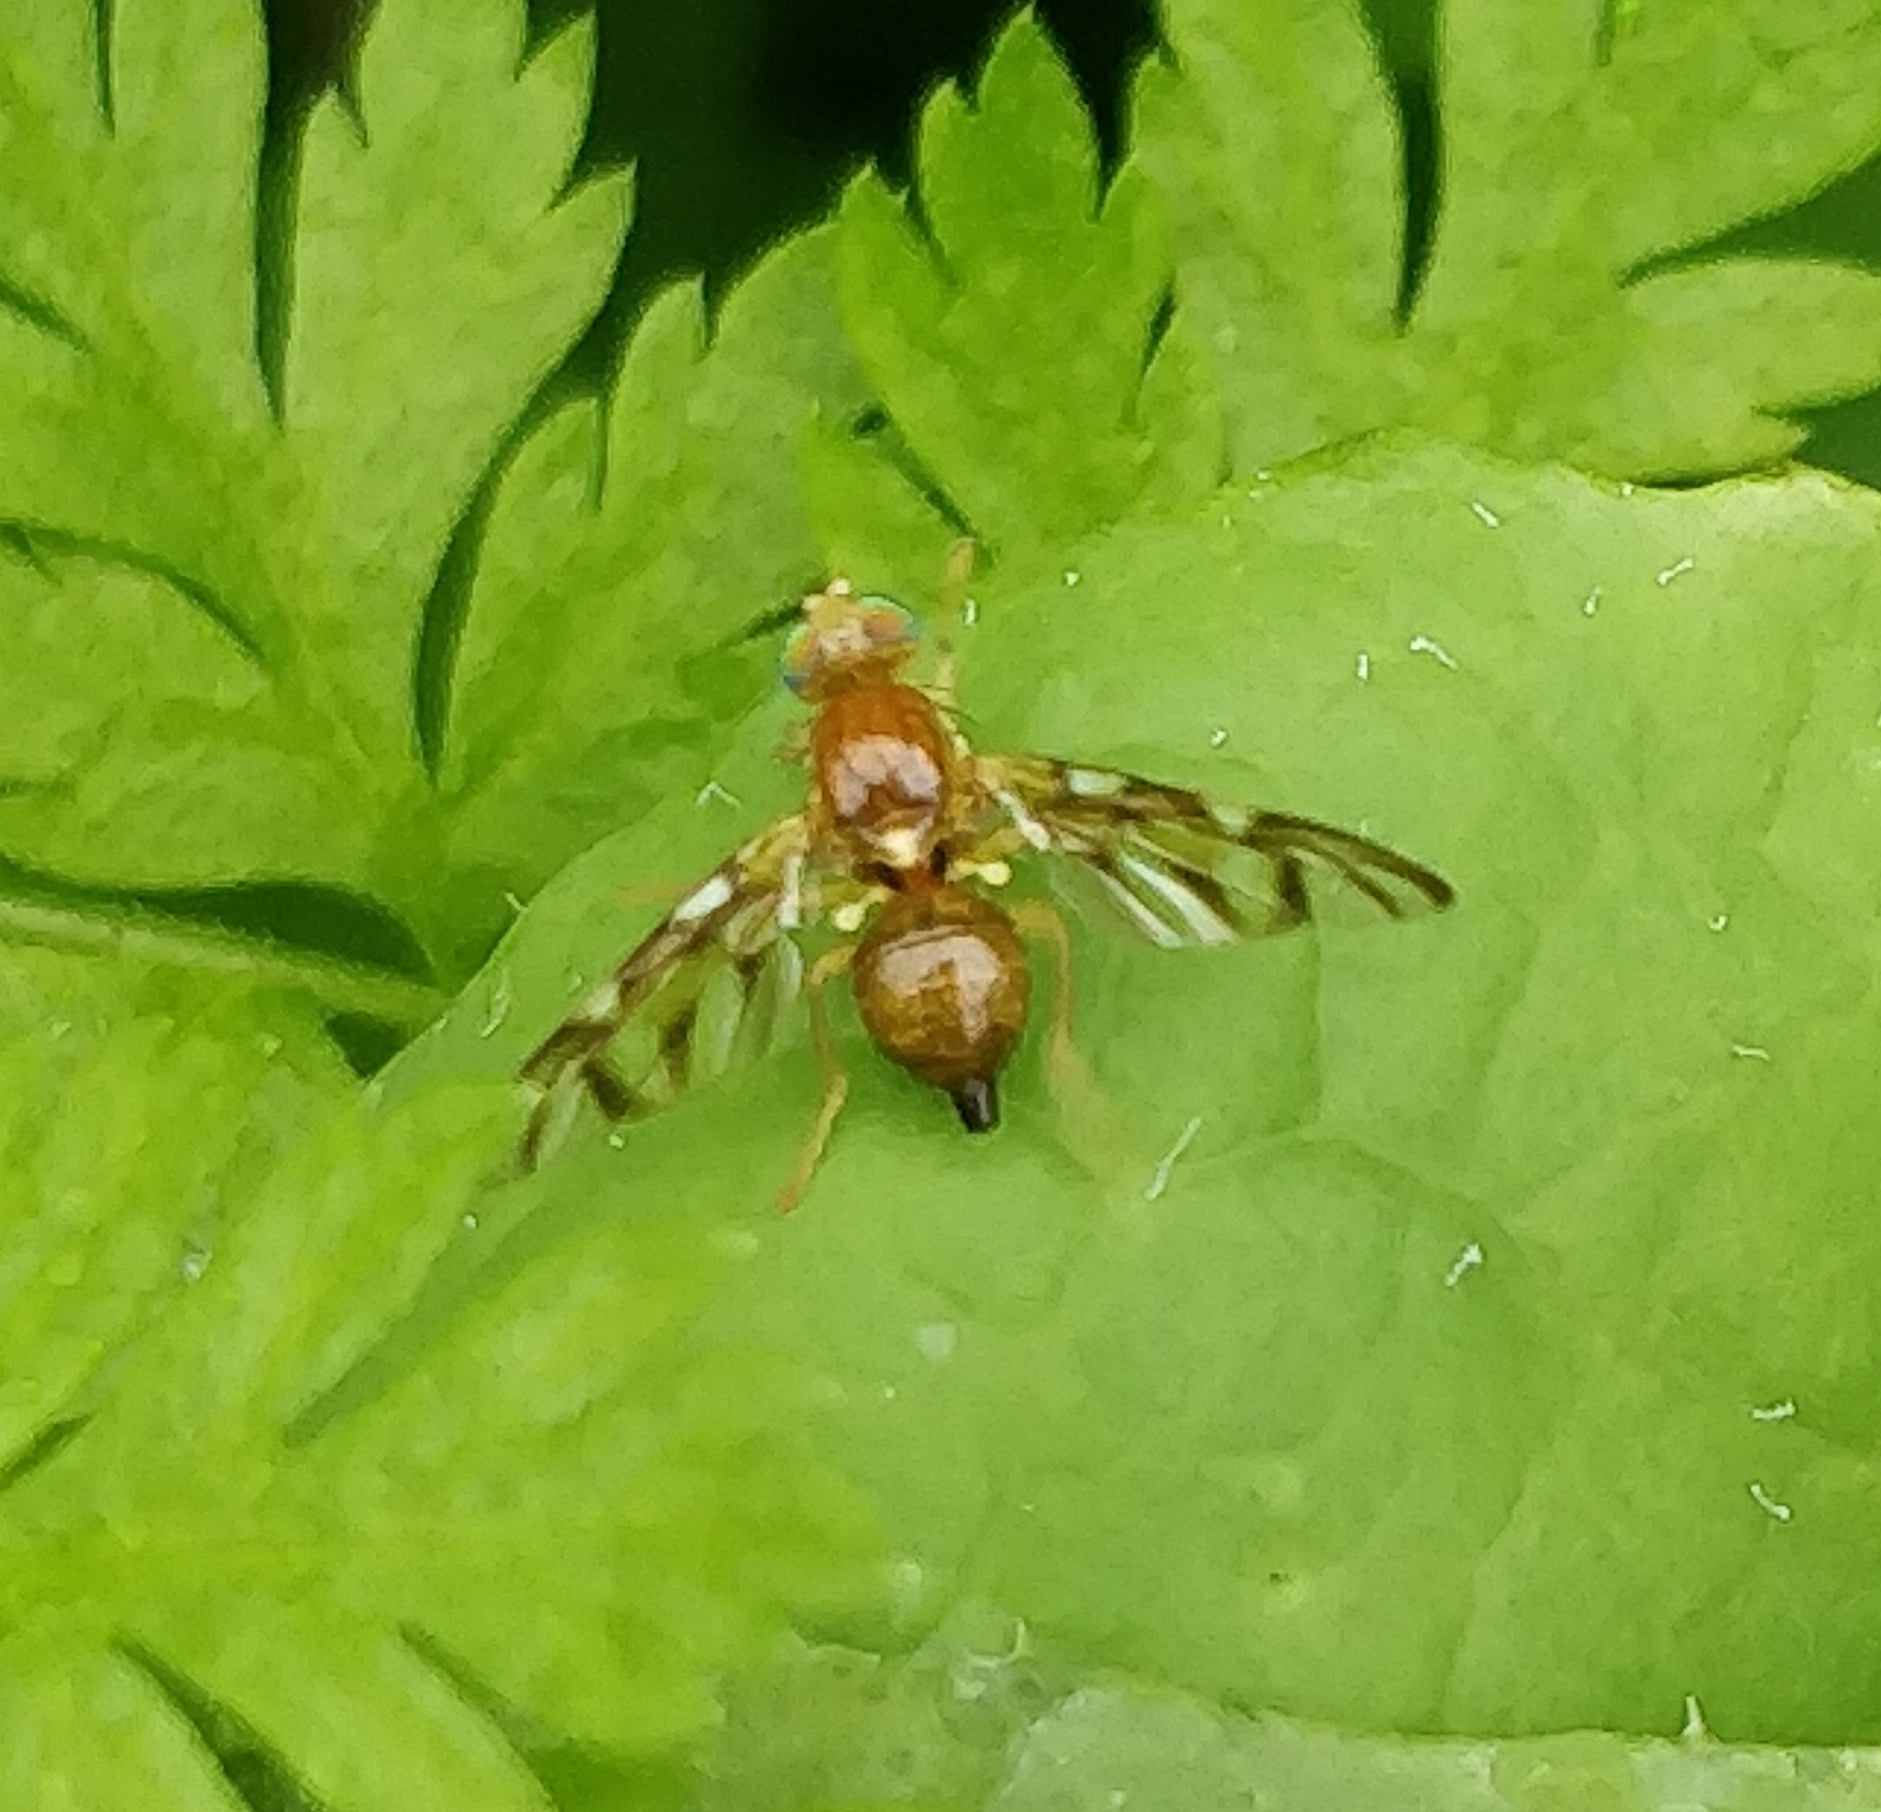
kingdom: Animalia
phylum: Arthropoda
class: Insecta
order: Diptera
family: Tephritidae
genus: Euleia
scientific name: Euleia separata
